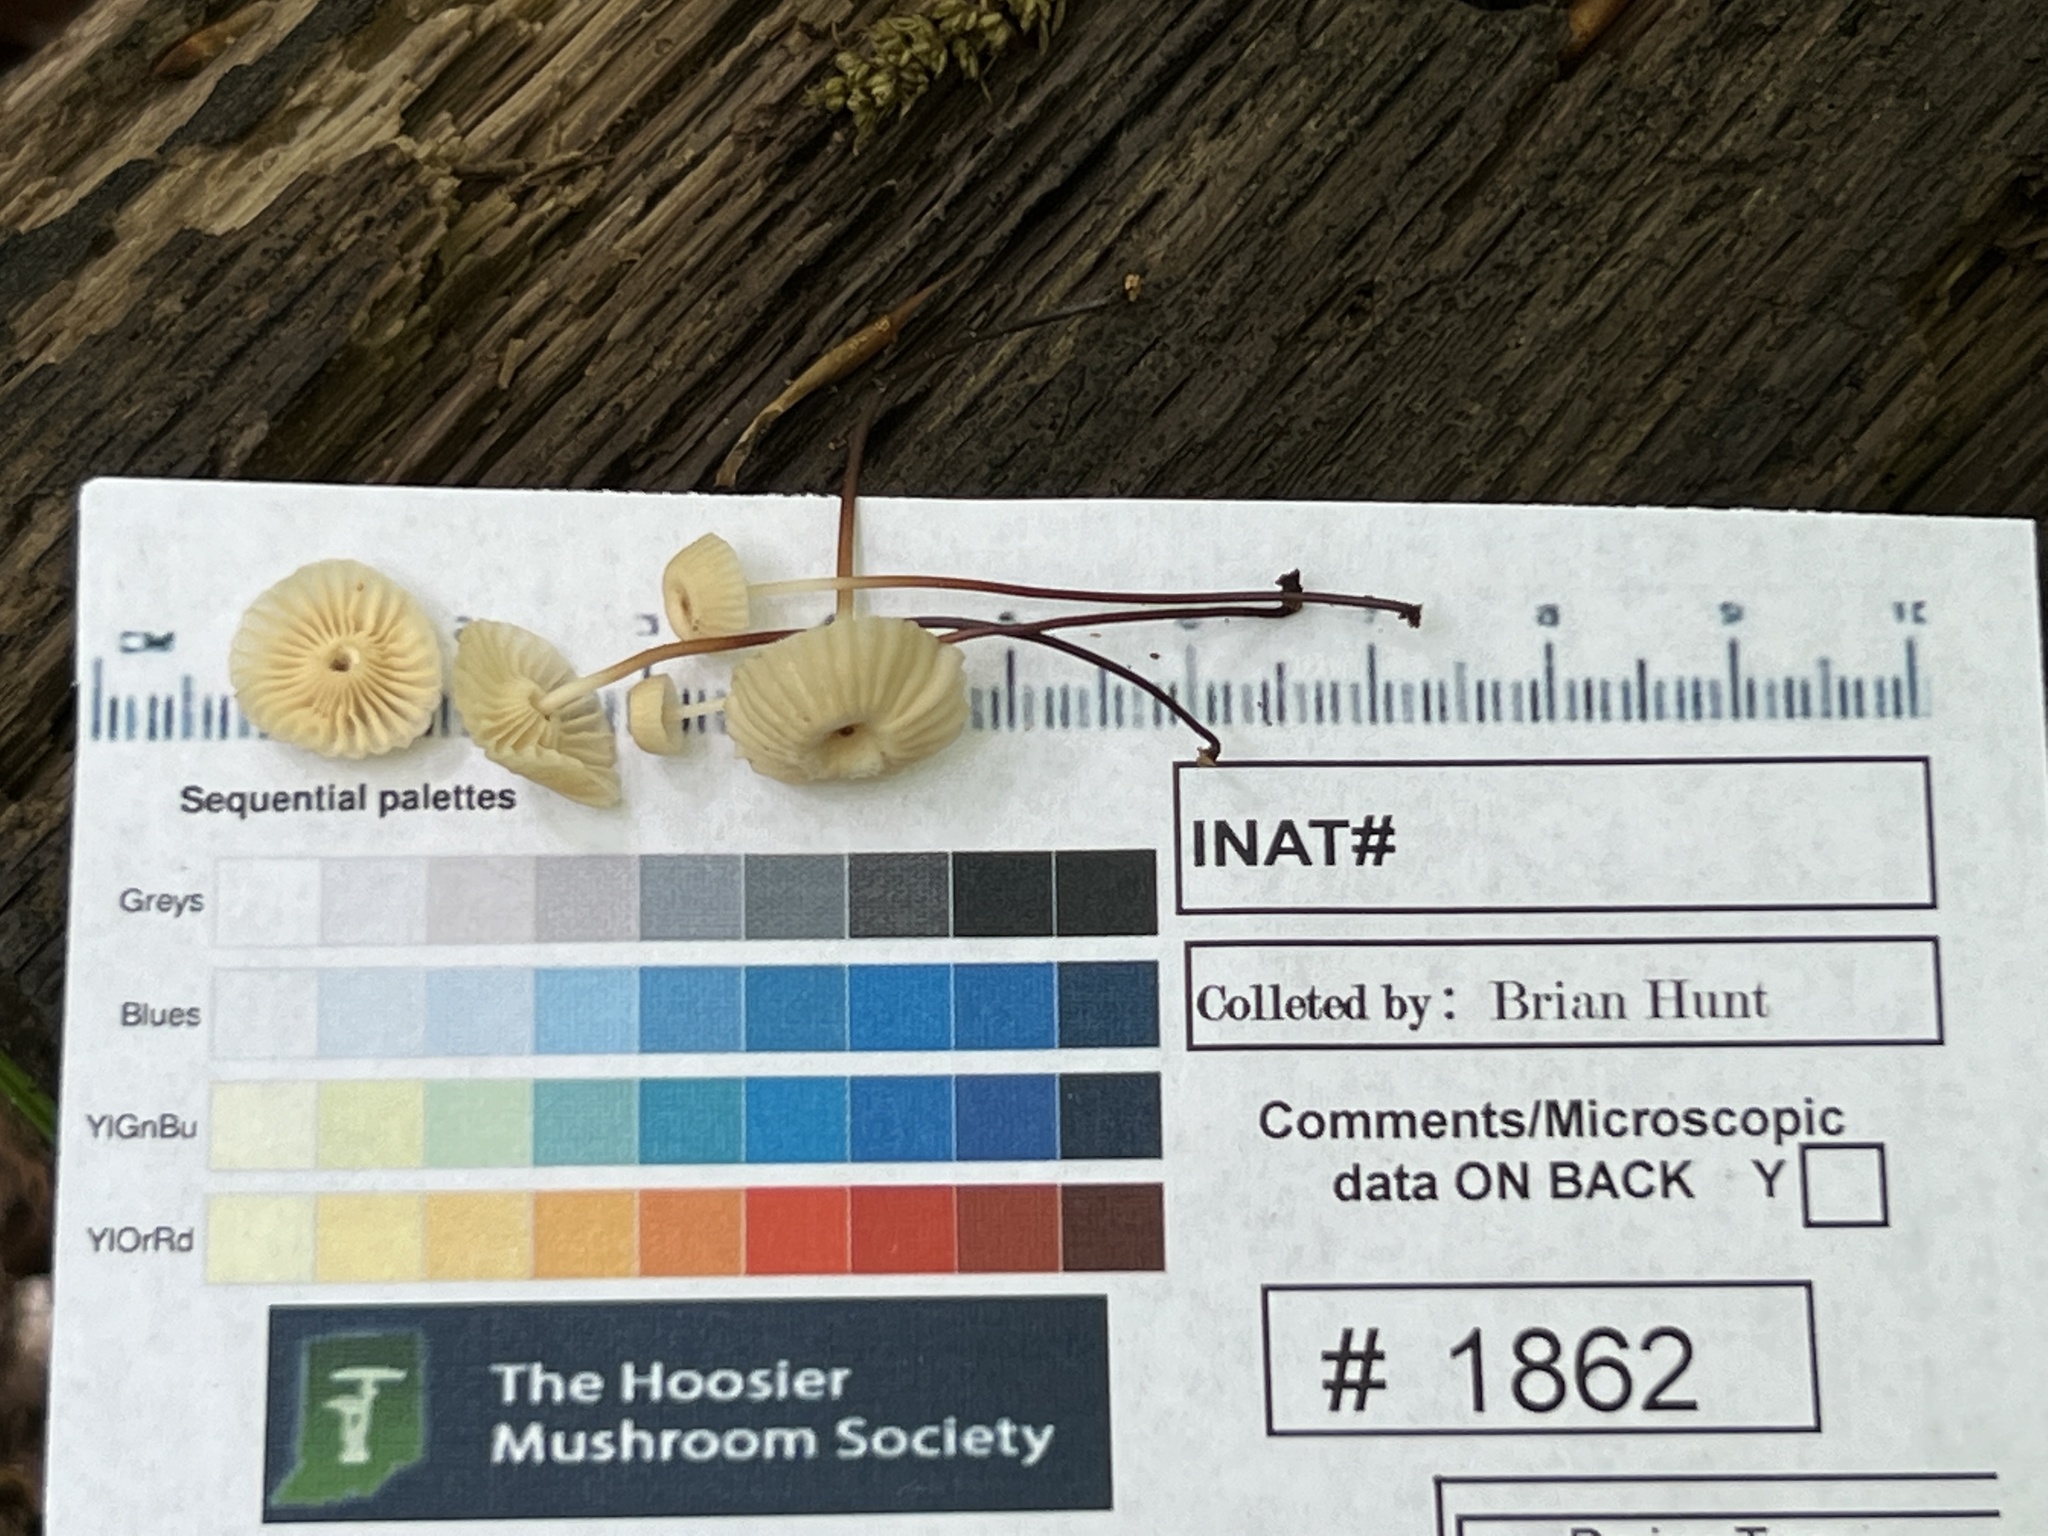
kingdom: Fungi
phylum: Basidiomycota
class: Agaricomycetes
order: Agaricales
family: Marasmiaceae
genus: Marasmius
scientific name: Marasmius rotula
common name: Collared parachute
